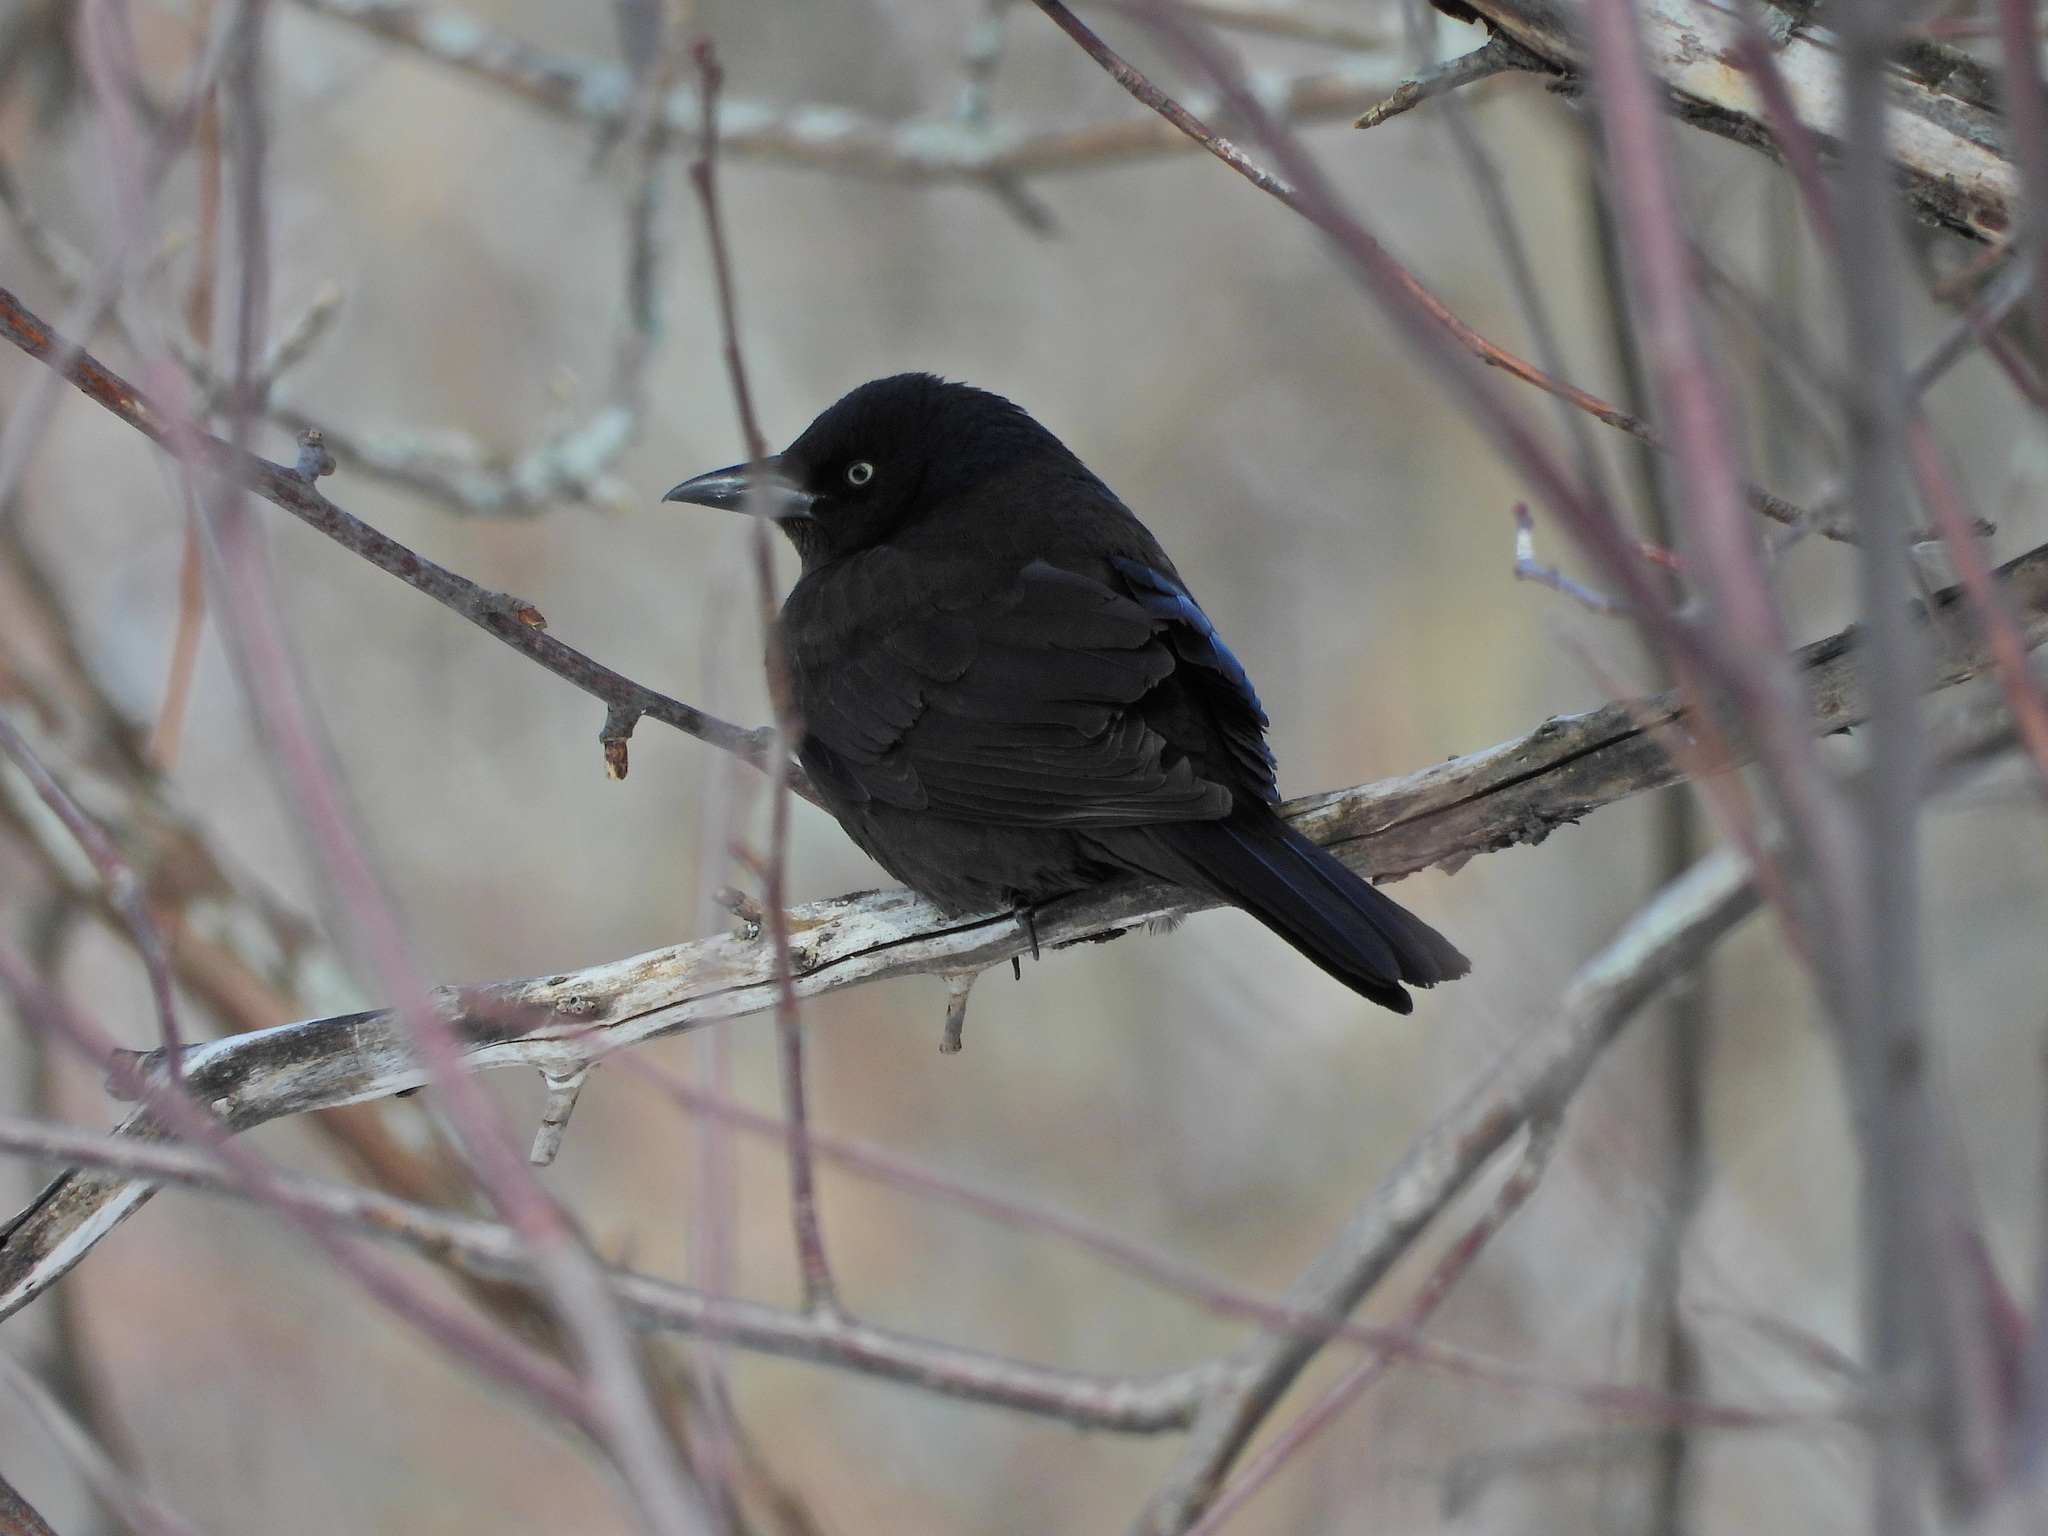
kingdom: Animalia
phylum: Chordata
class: Aves
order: Passeriformes
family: Icteridae
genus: Quiscalus
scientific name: Quiscalus quiscula
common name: Common grackle
